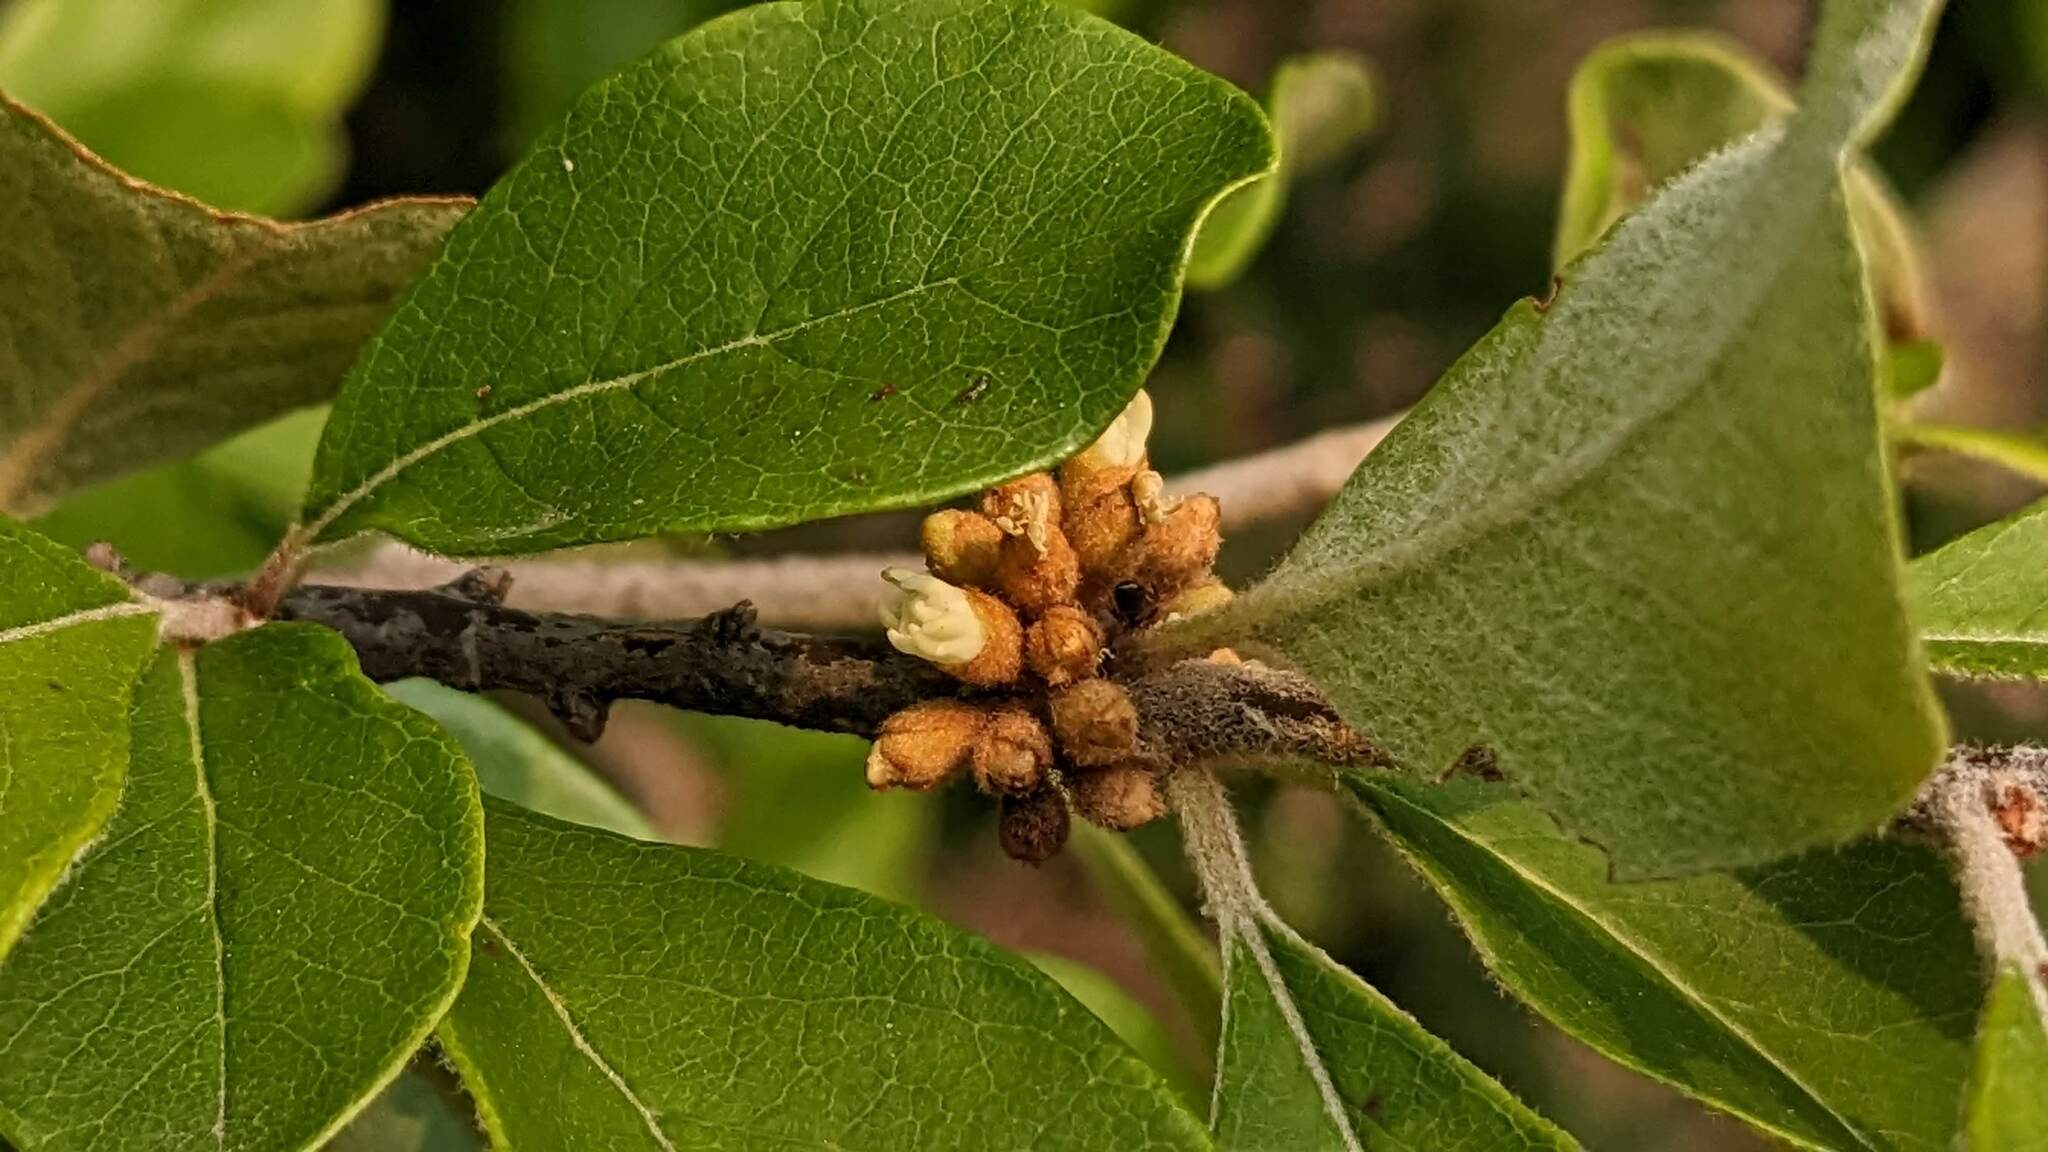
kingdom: Plantae
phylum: Tracheophyta
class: Magnoliopsida
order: Ericales
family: Sapotaceae
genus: Sideroxylon
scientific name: Sideroxylon lanuginosum
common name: Chittamwood
